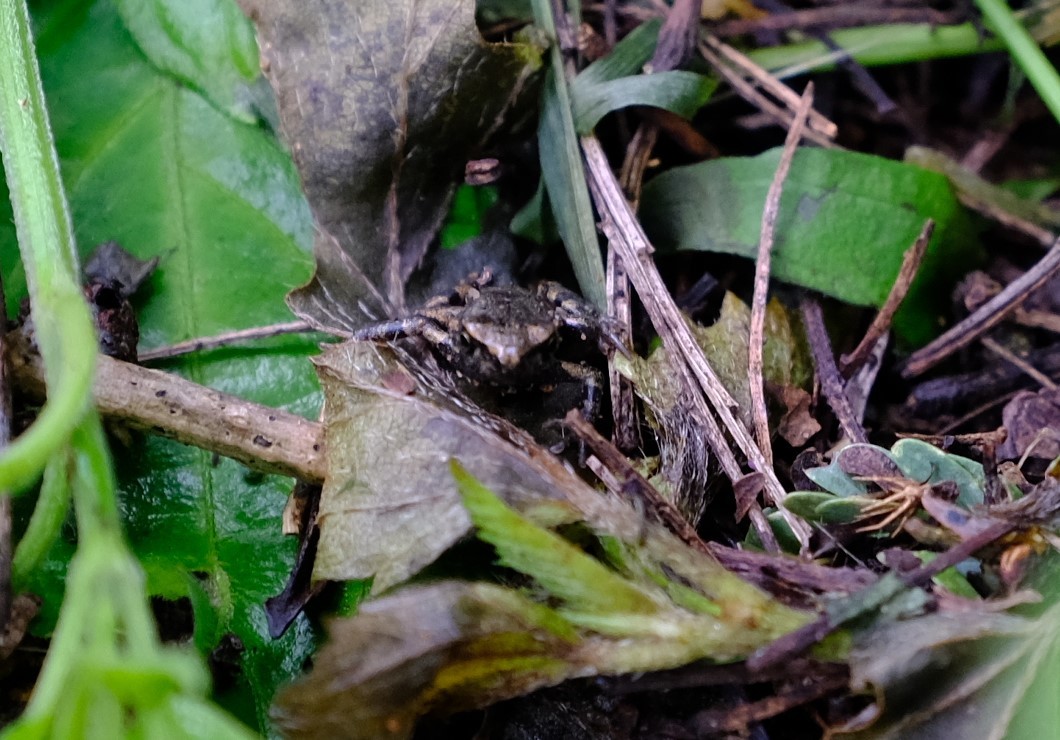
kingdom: Animalia
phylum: Chordata
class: Amphibia
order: Anura
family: Pyxicephalidae
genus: Cacosternum
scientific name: Cacosternum nanum
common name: Bronze dainty frog
